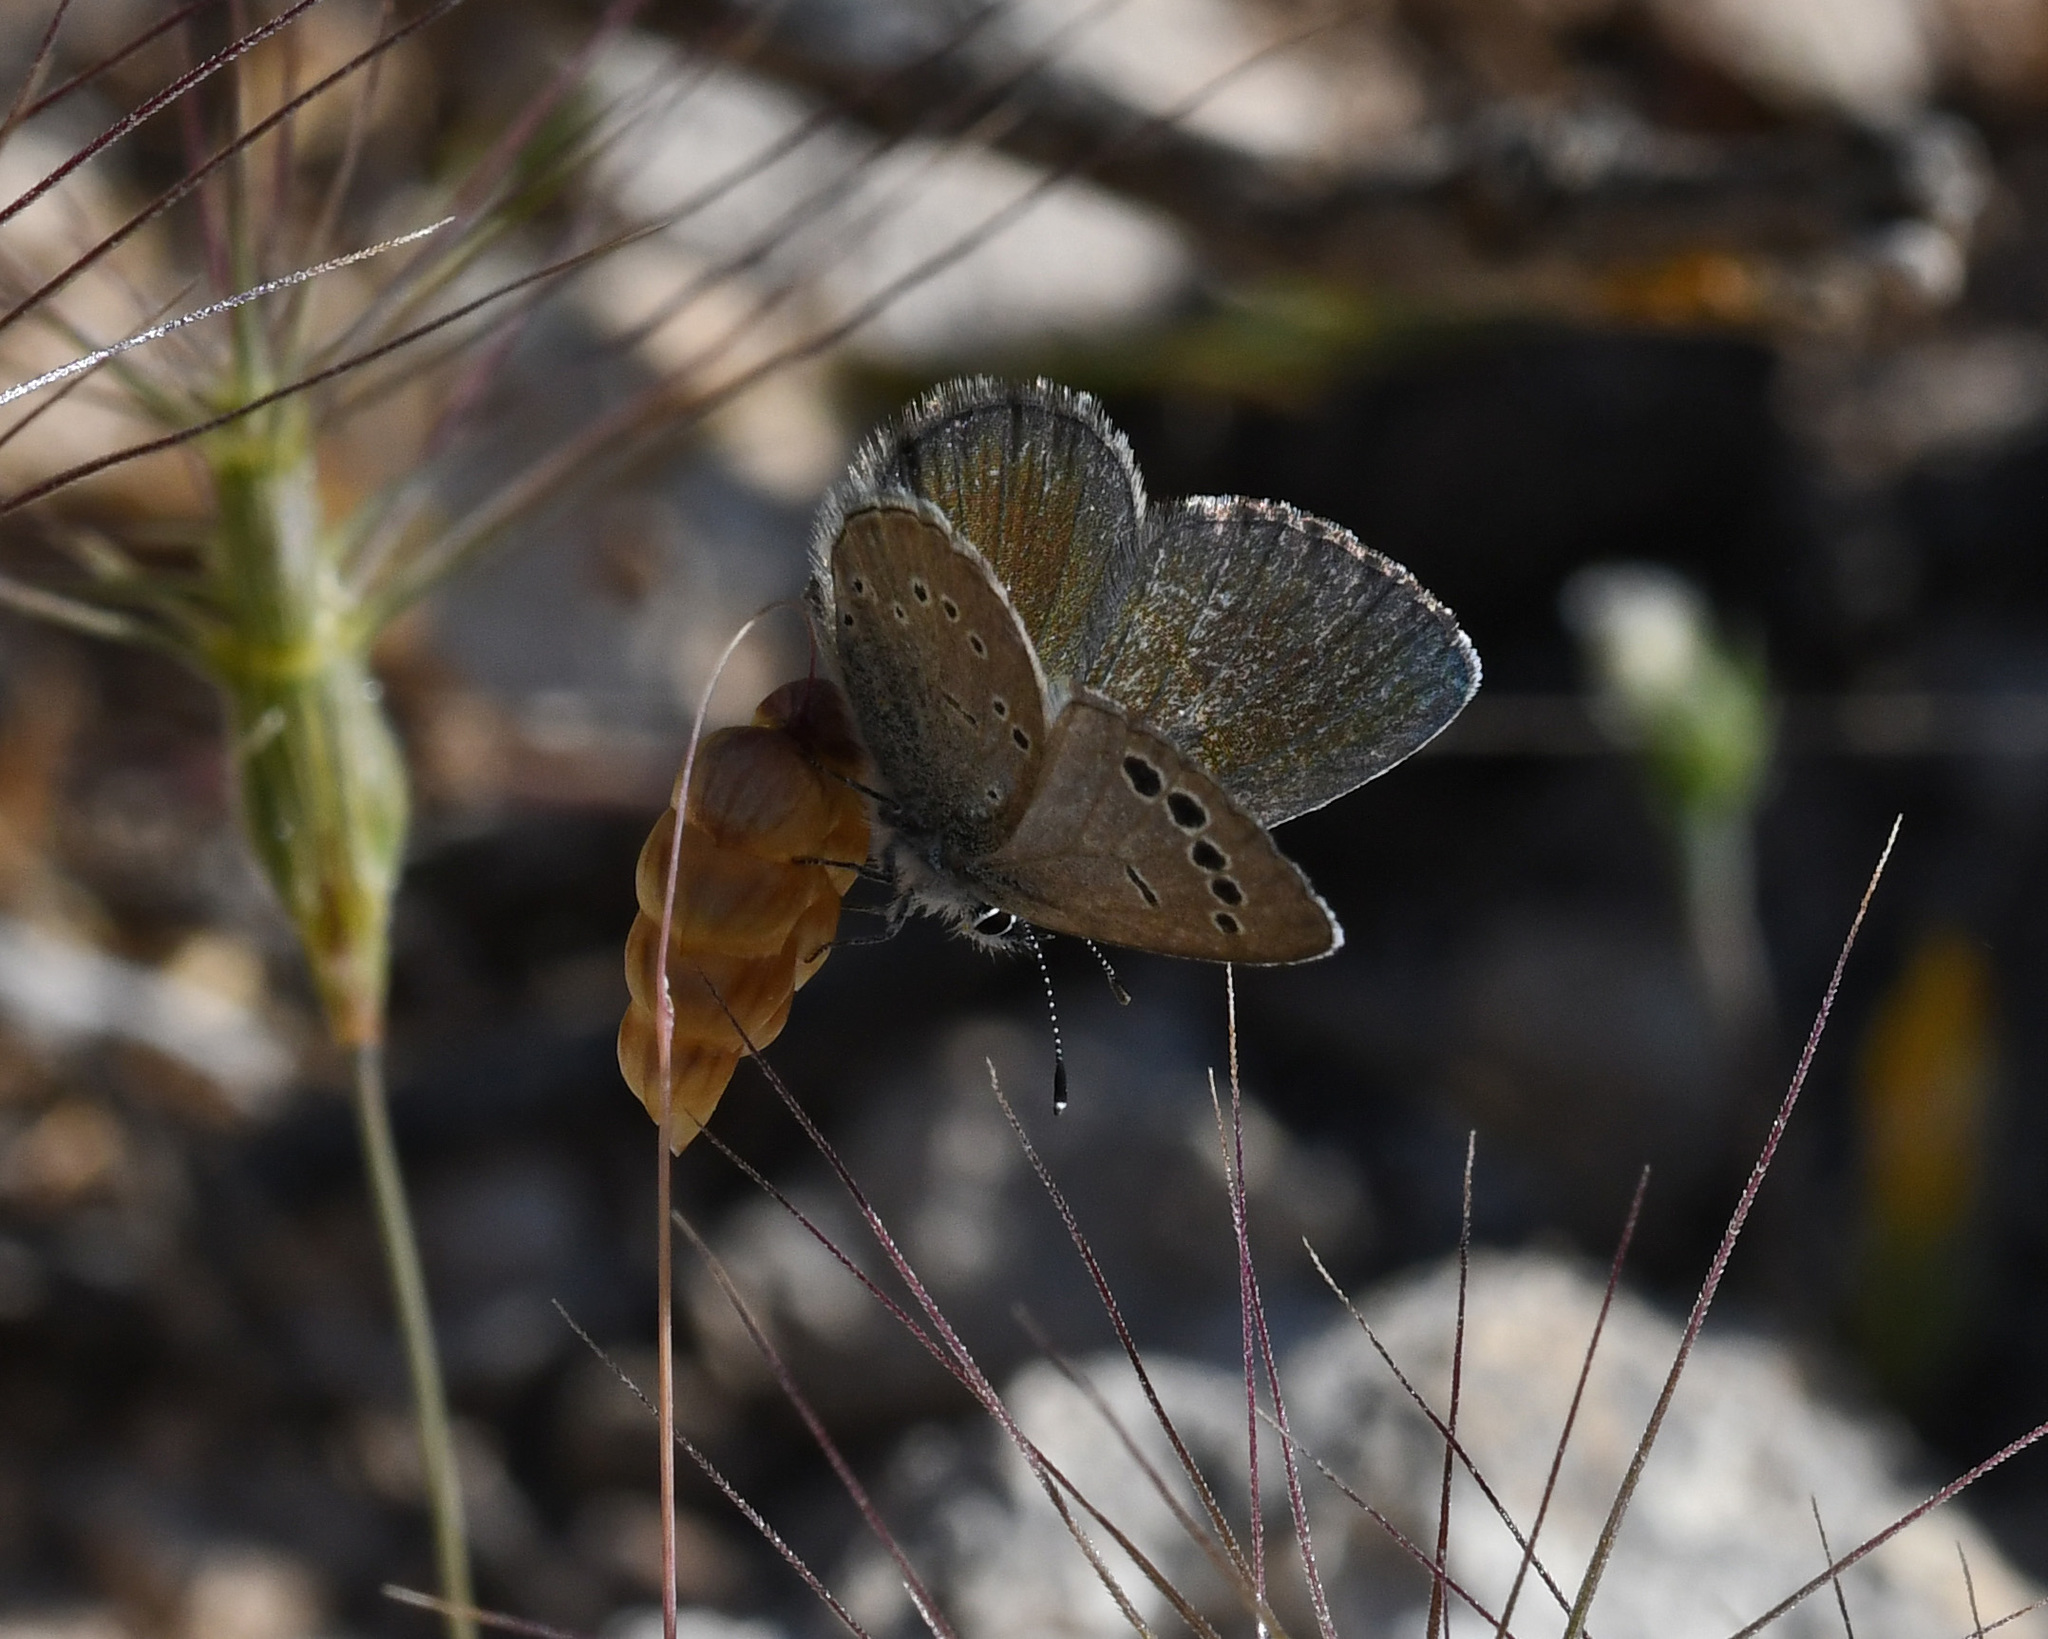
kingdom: Animalia
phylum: Arthropoda
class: Insecta
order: Lepidoptera
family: Lycaenidae
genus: Glaucopsyche
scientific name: Glaucopsyche paphos
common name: Paphos blue
